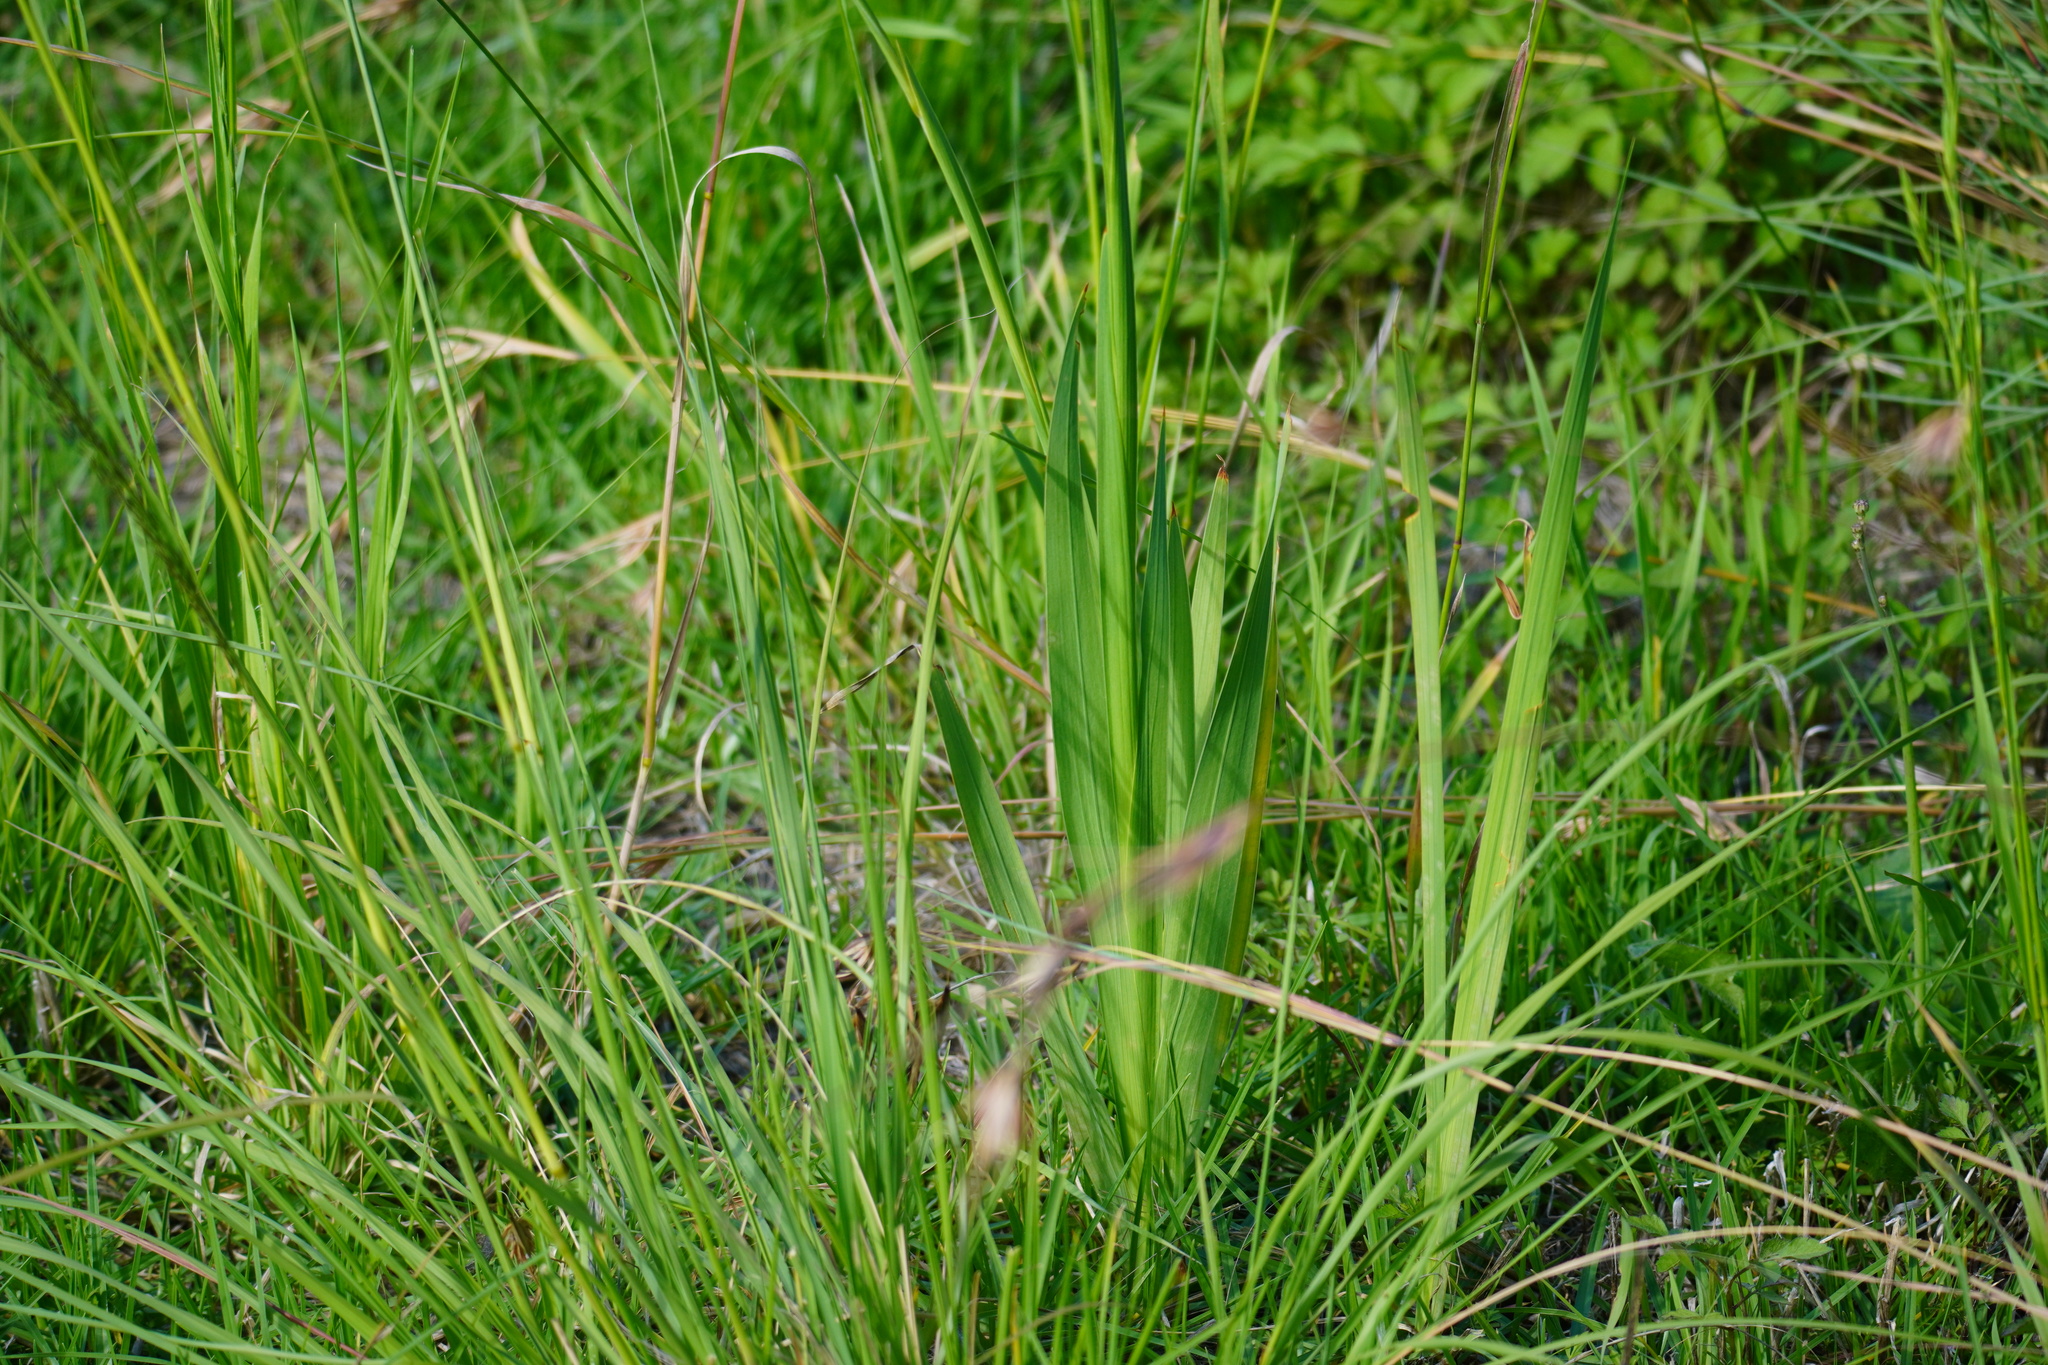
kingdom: Plantae
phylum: Tracheophyta
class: Liliopsida
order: Asparagales
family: Iridaceae
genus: Gladiolus
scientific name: Gladiolus papilio
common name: Goldblotch gladiolus
